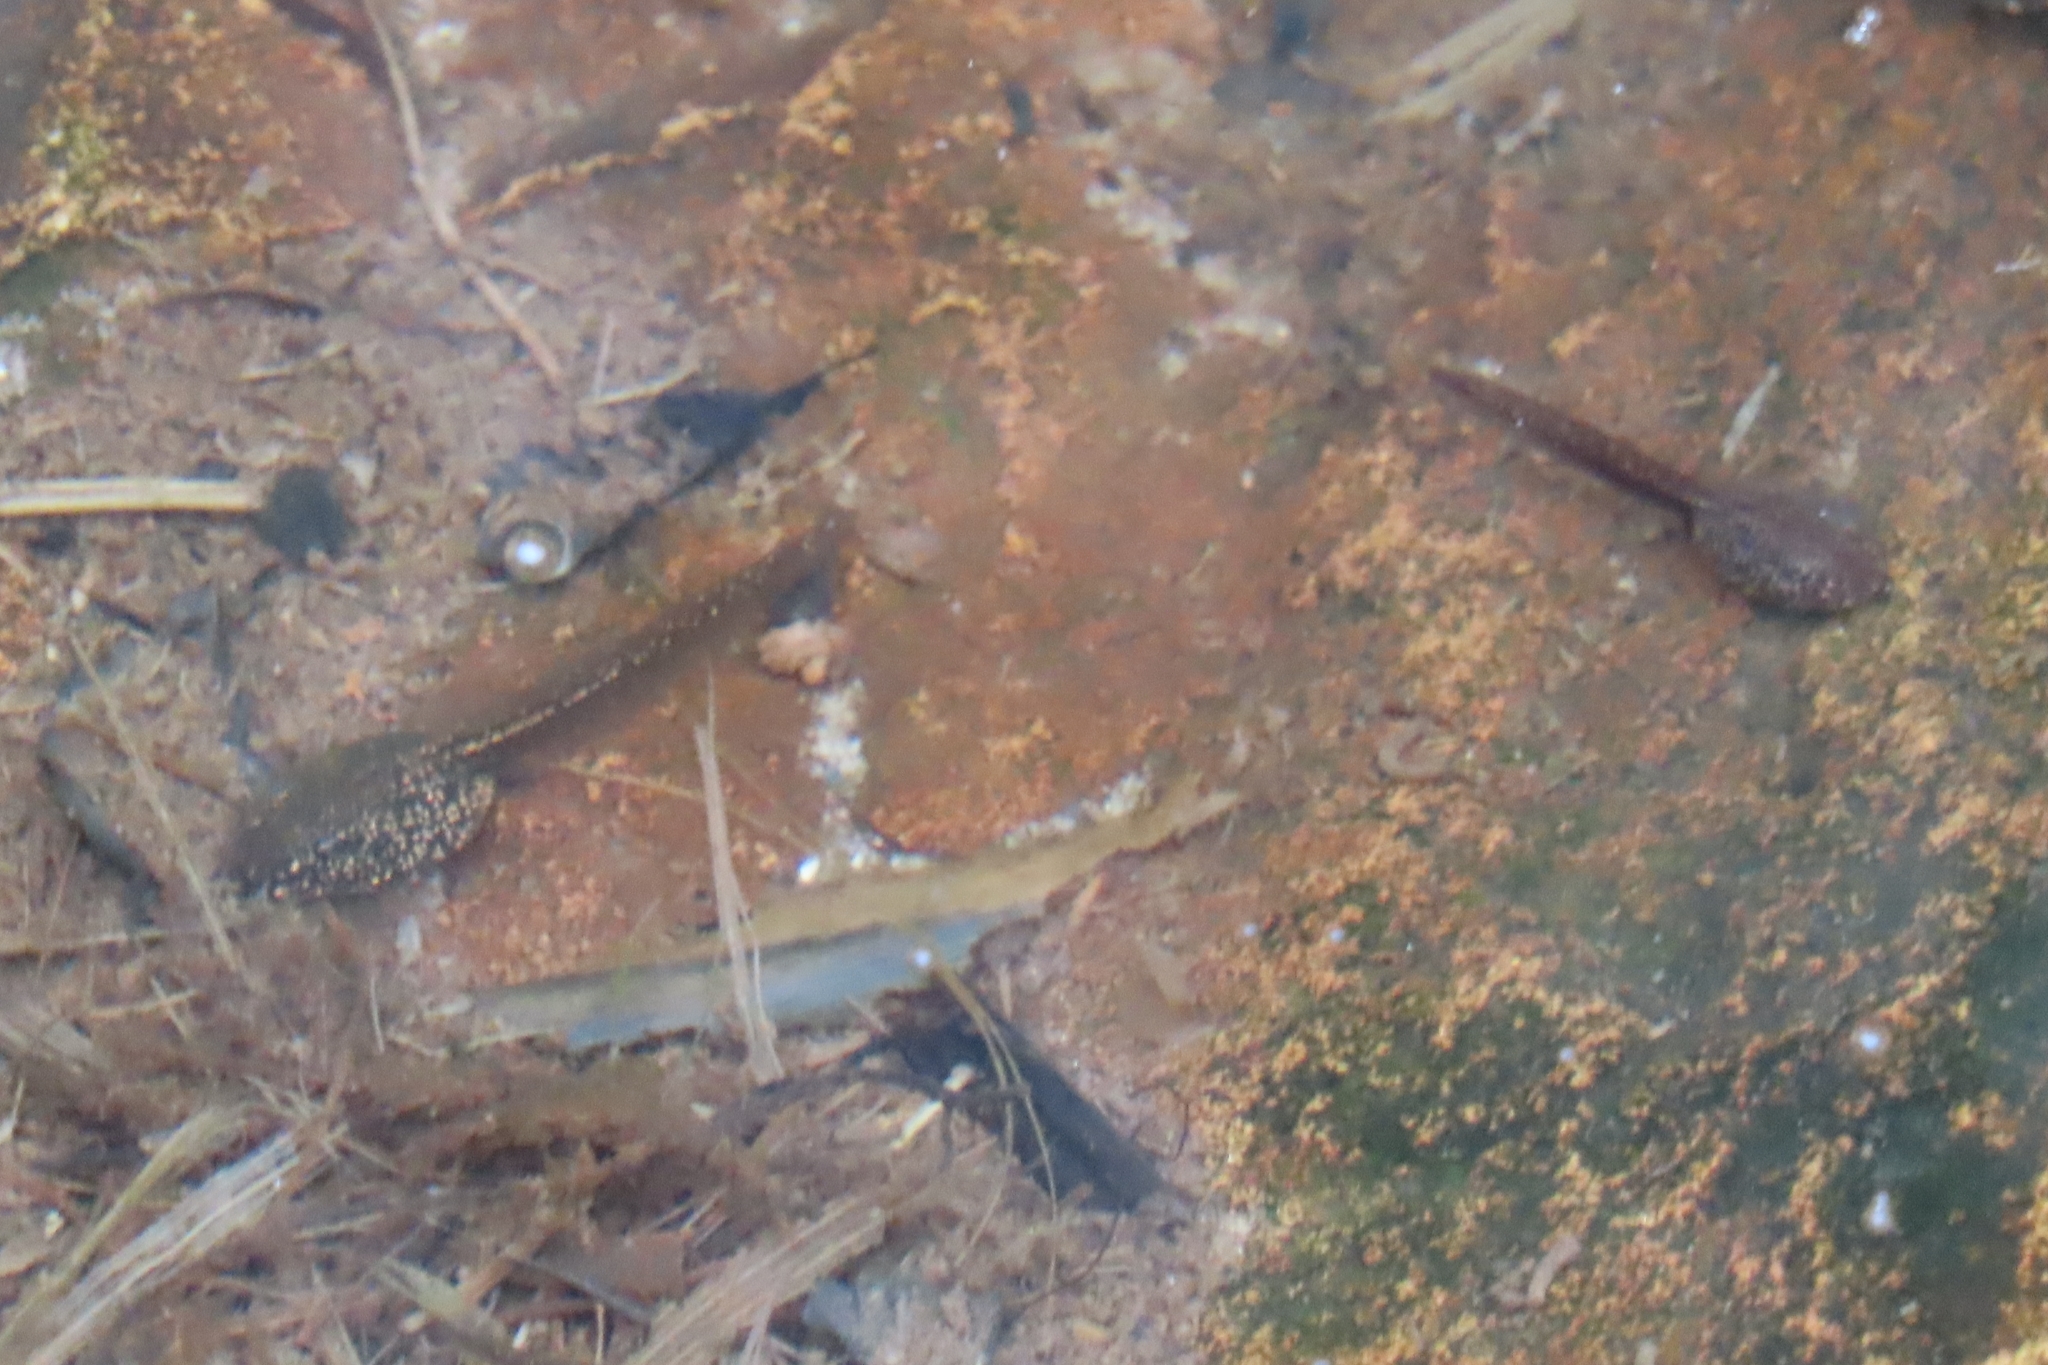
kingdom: Animalia
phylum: Chordata
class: Amphibia
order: Anura
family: Ranidae
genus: Rana
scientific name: Rana temporaria
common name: Common frog
